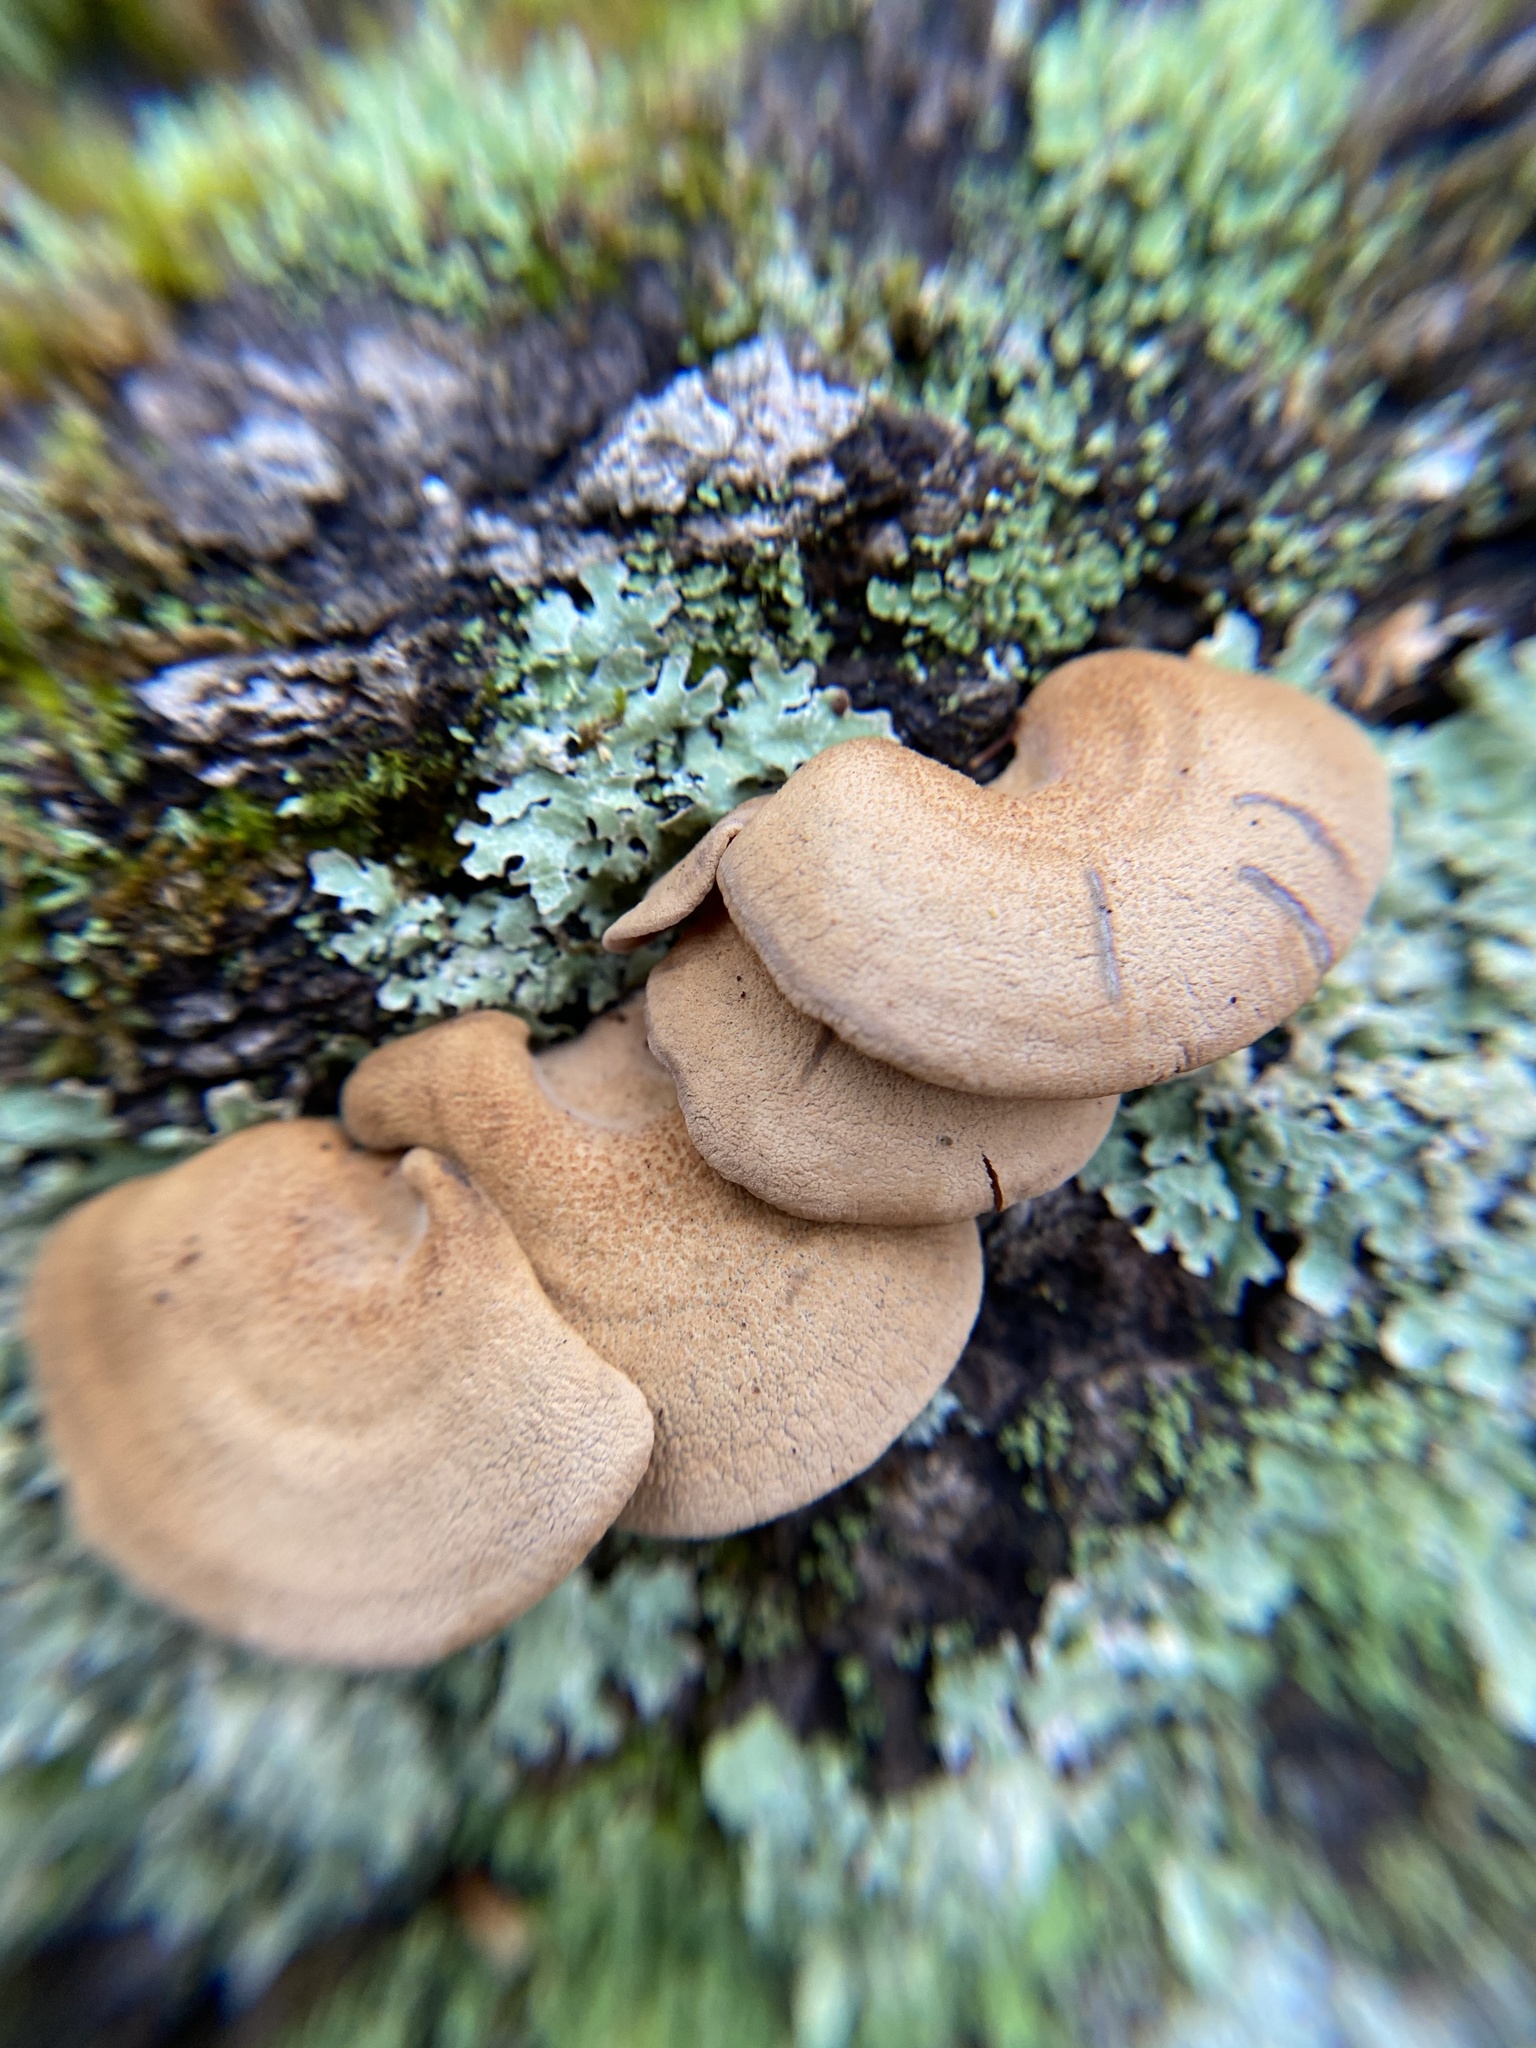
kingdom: Fungi
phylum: Basidiomycota
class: Agaricomycetes
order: Agaricales
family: Mycenaceae
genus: Panellus
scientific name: Panellus stipticus
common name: Bitter oysterling
